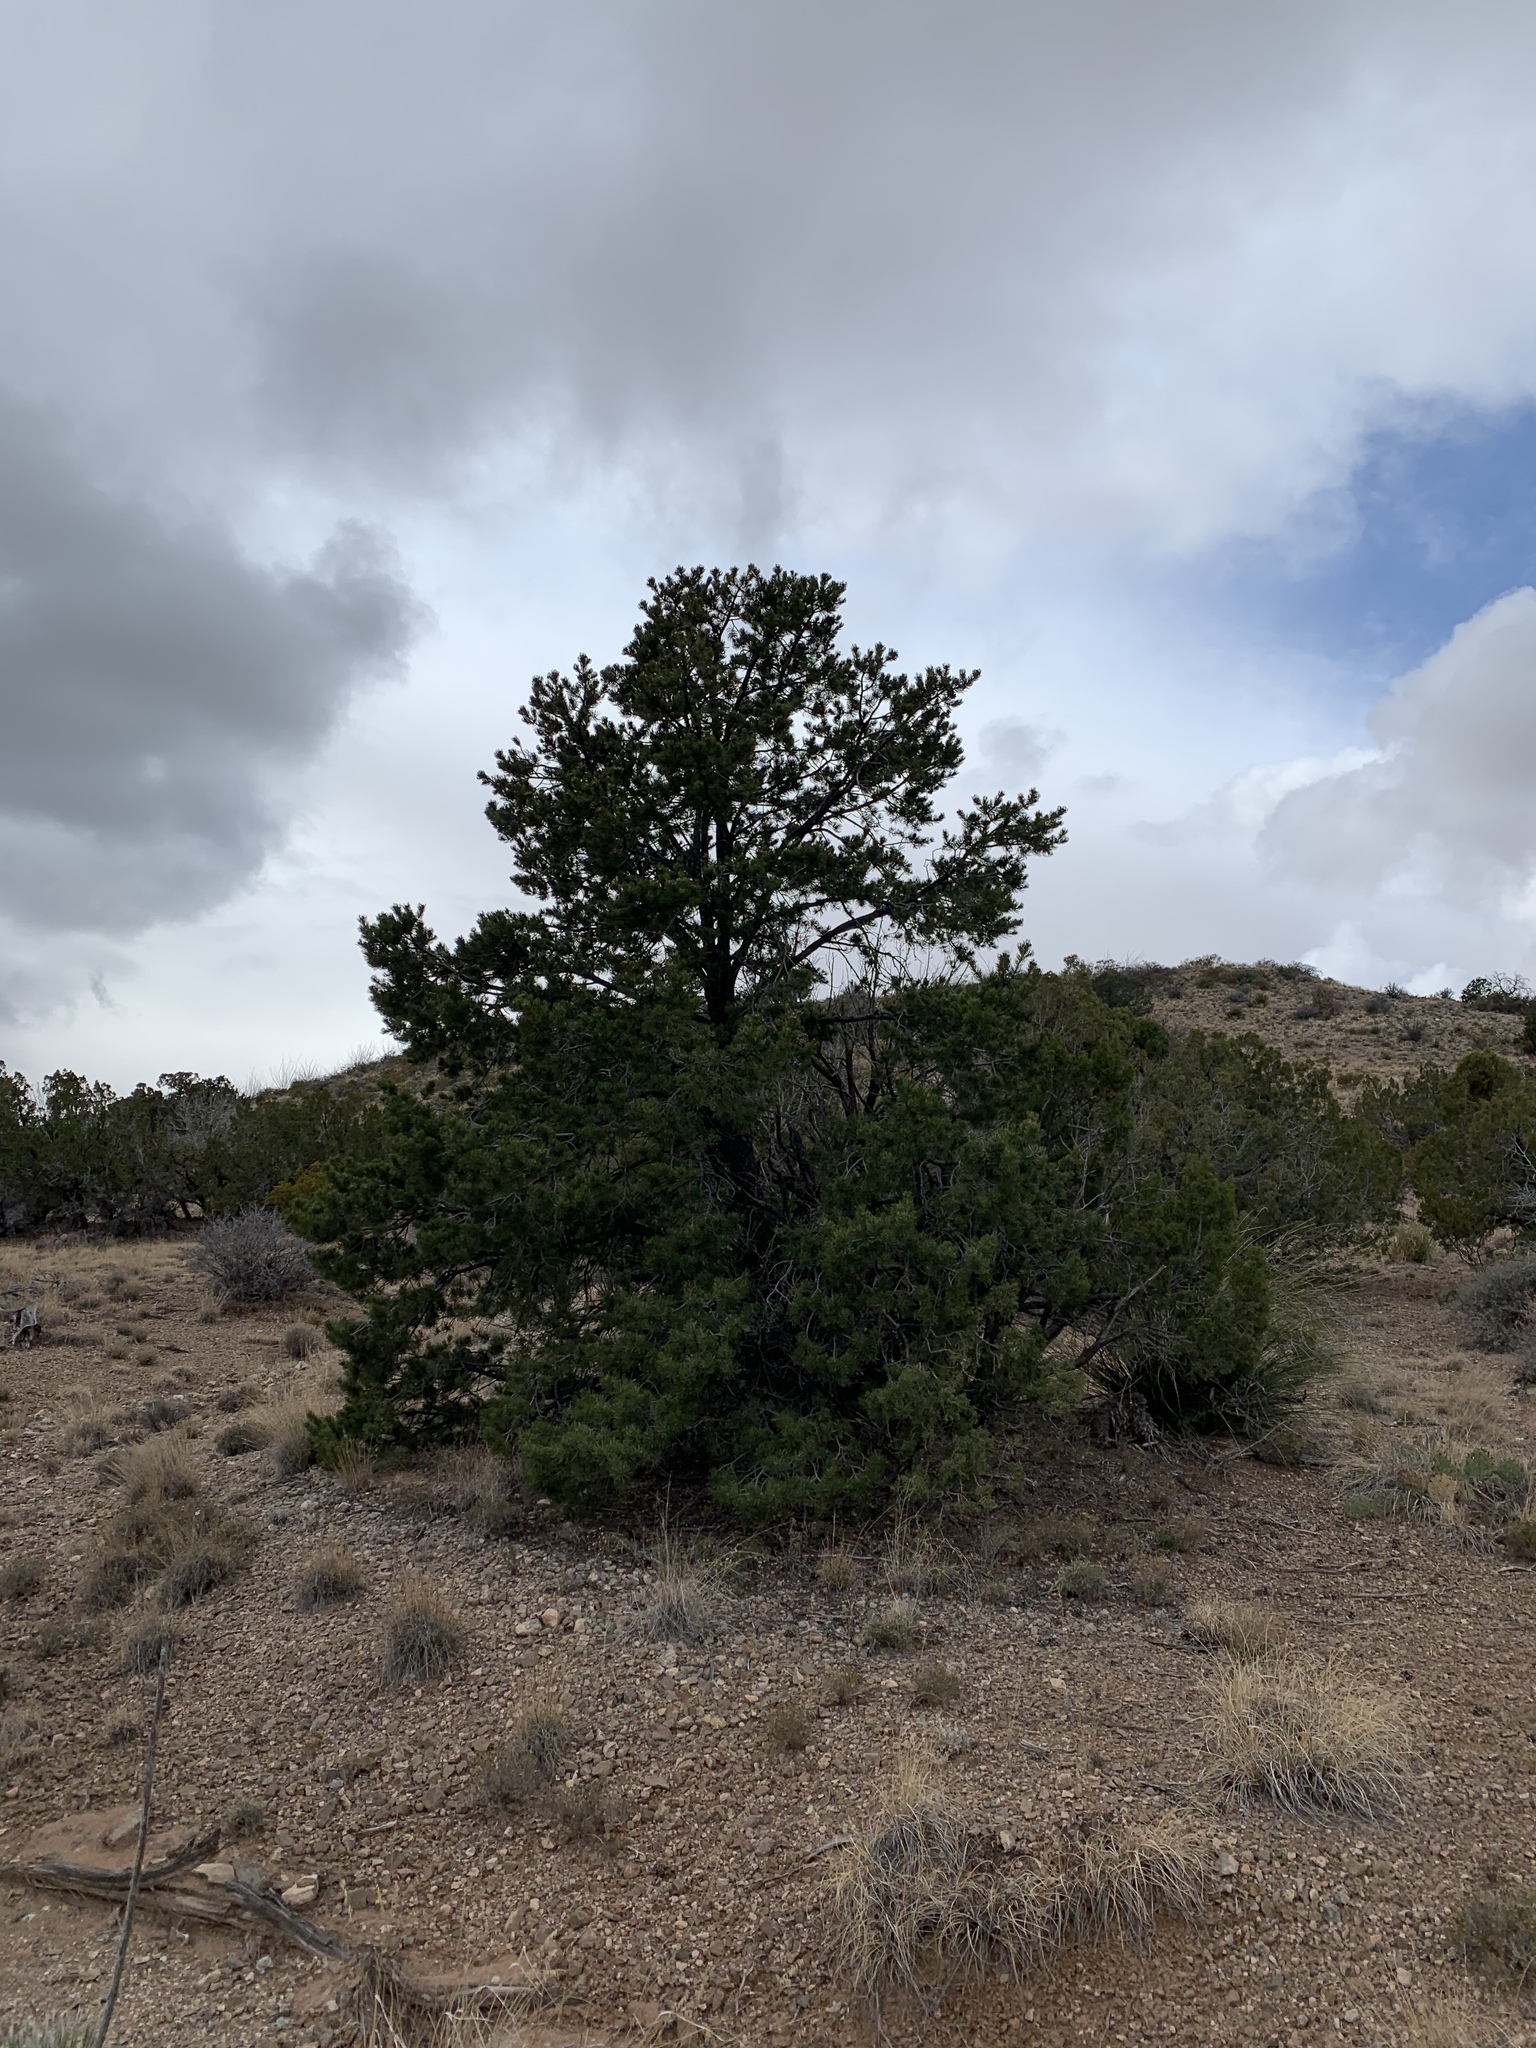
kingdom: Plantae
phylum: Tracheophyta
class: Pinopsida
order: Pinales
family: Pinaceae
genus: Pinus
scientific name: Pinus edulis
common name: Colorado pinyon
